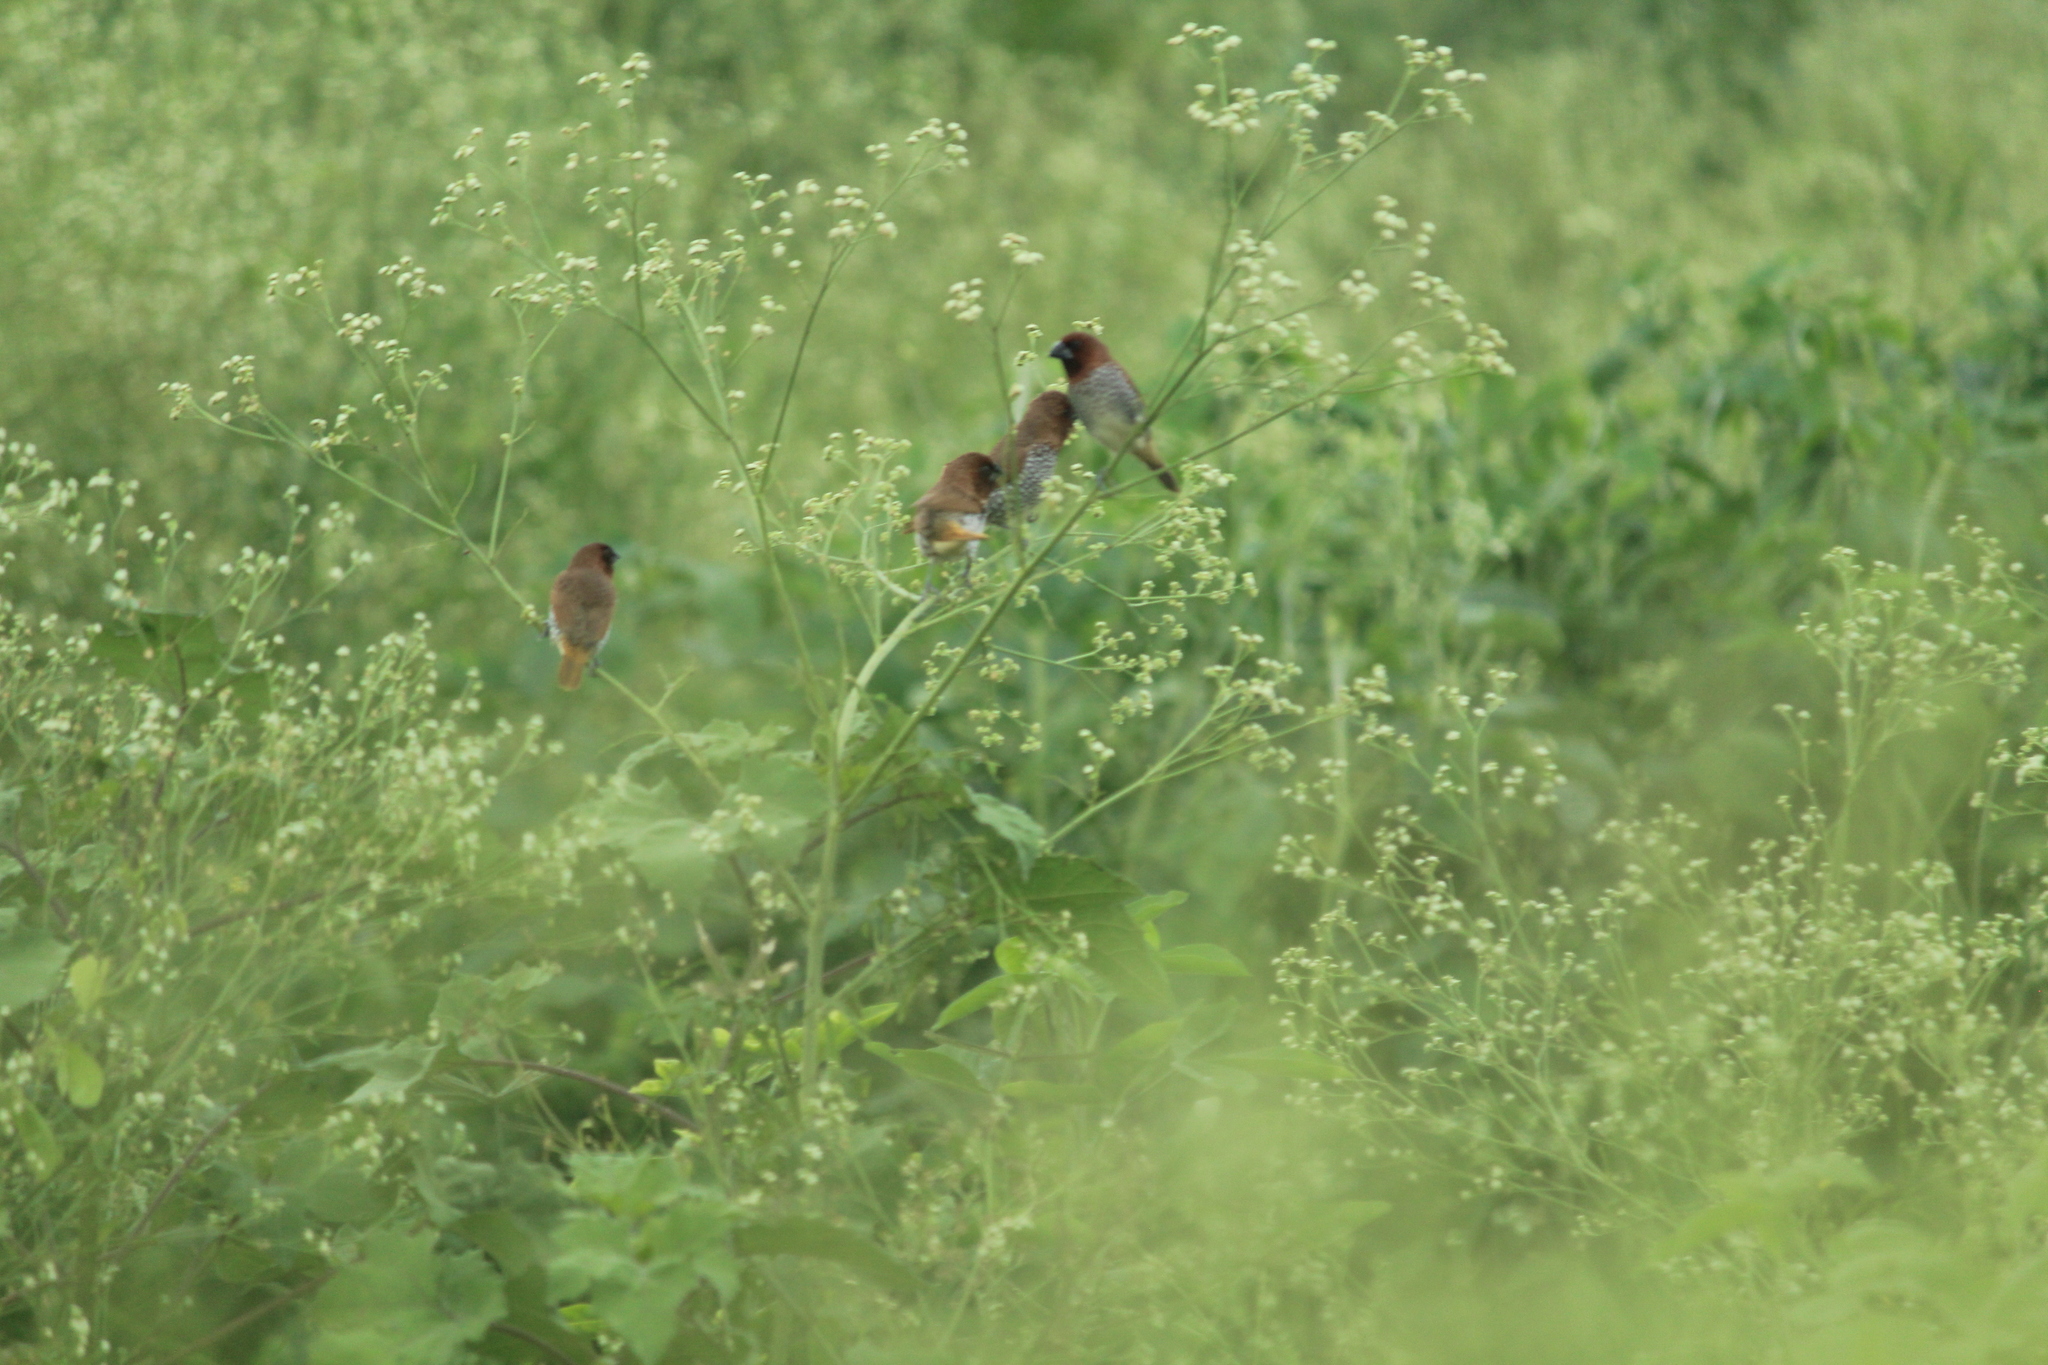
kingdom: Animalia
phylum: Chordata
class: Aves
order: Passeriformes
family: Estrildidae
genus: Lonchura
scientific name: Lonchura punctulata
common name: Scaly-breasted munia
